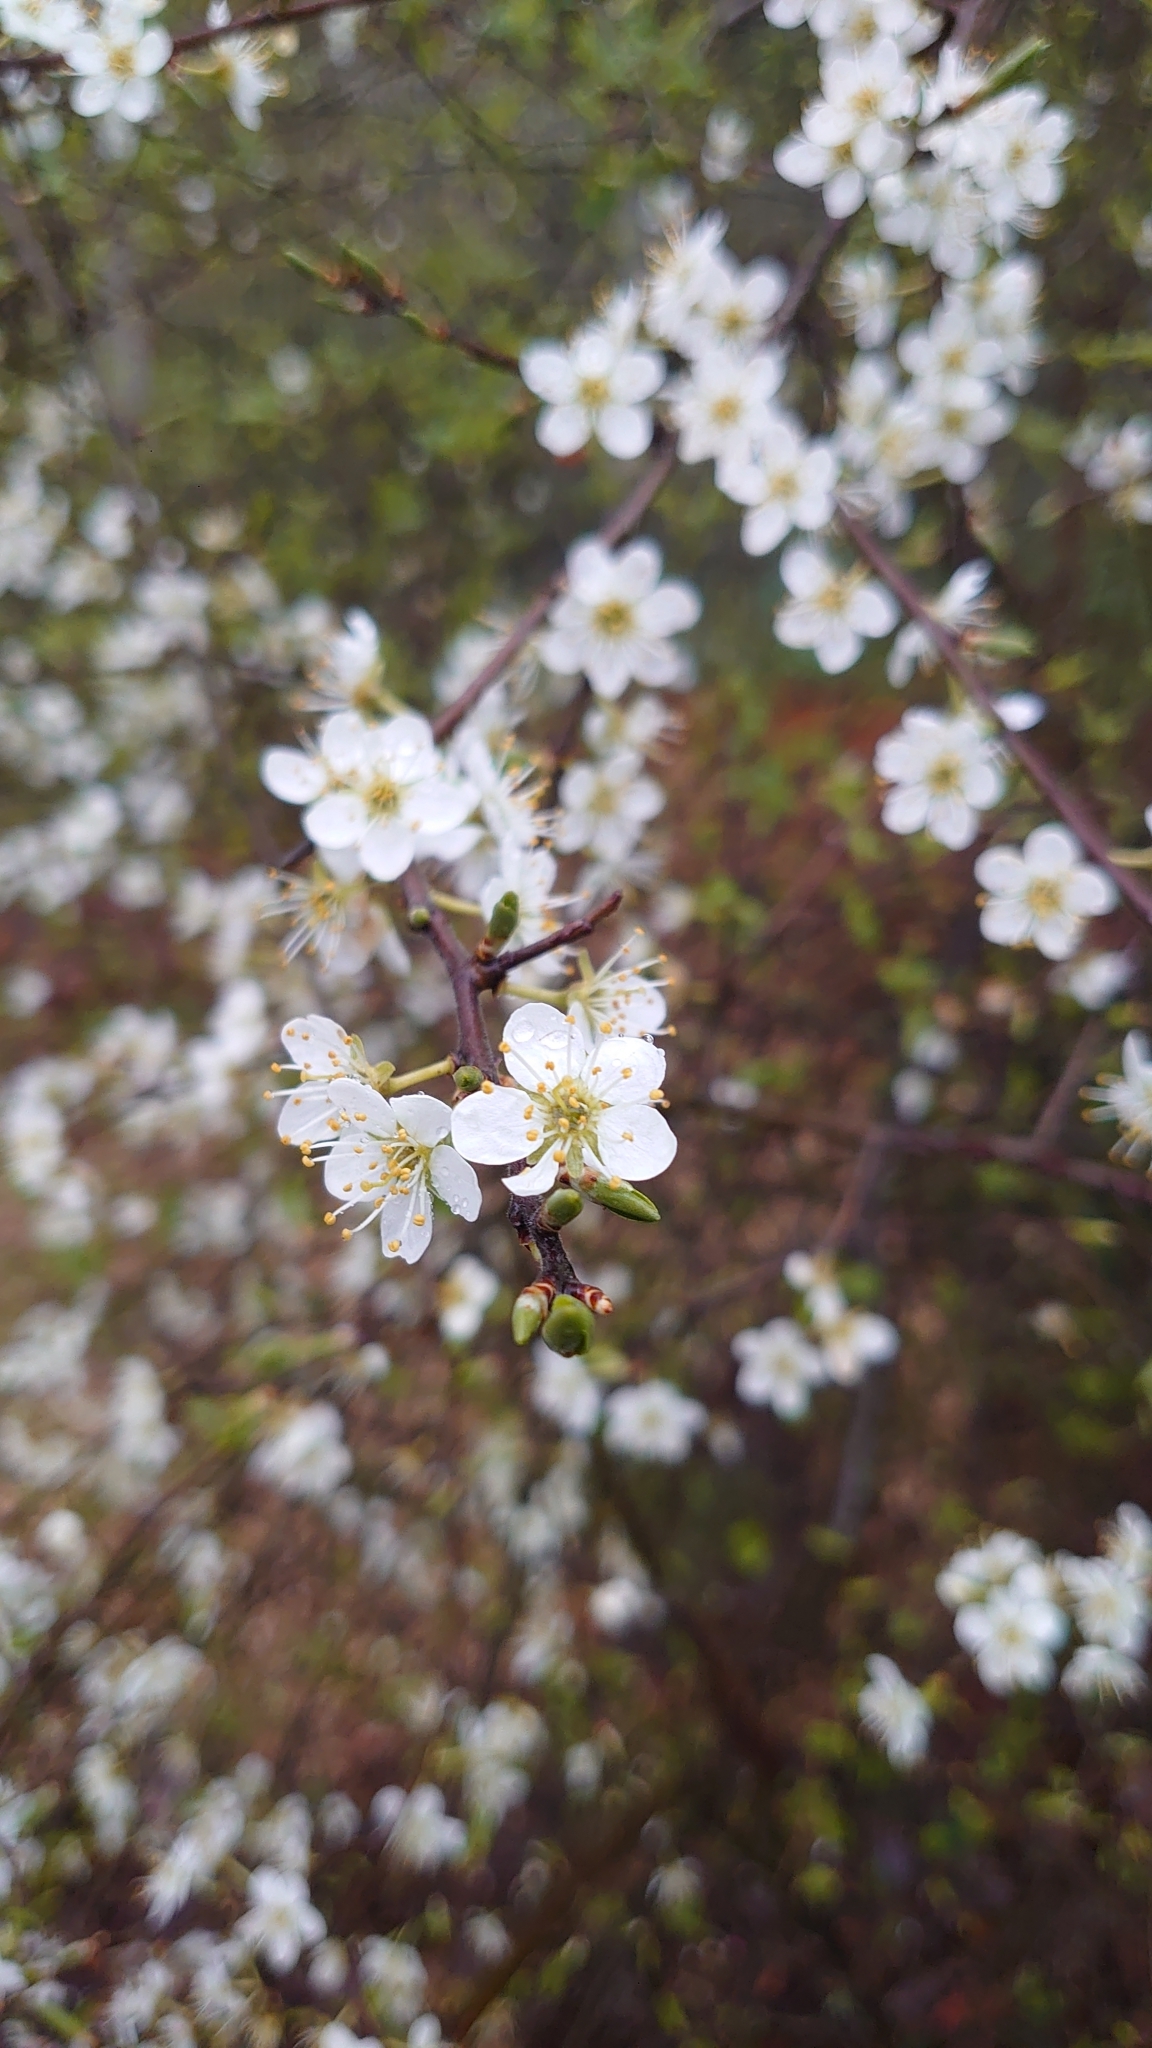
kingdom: Plantae
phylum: Tracheophyta
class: Magnoliopsida
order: Rosales
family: Rosaceae
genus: Prunus
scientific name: Prunus spinosa
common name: Blackthorn
